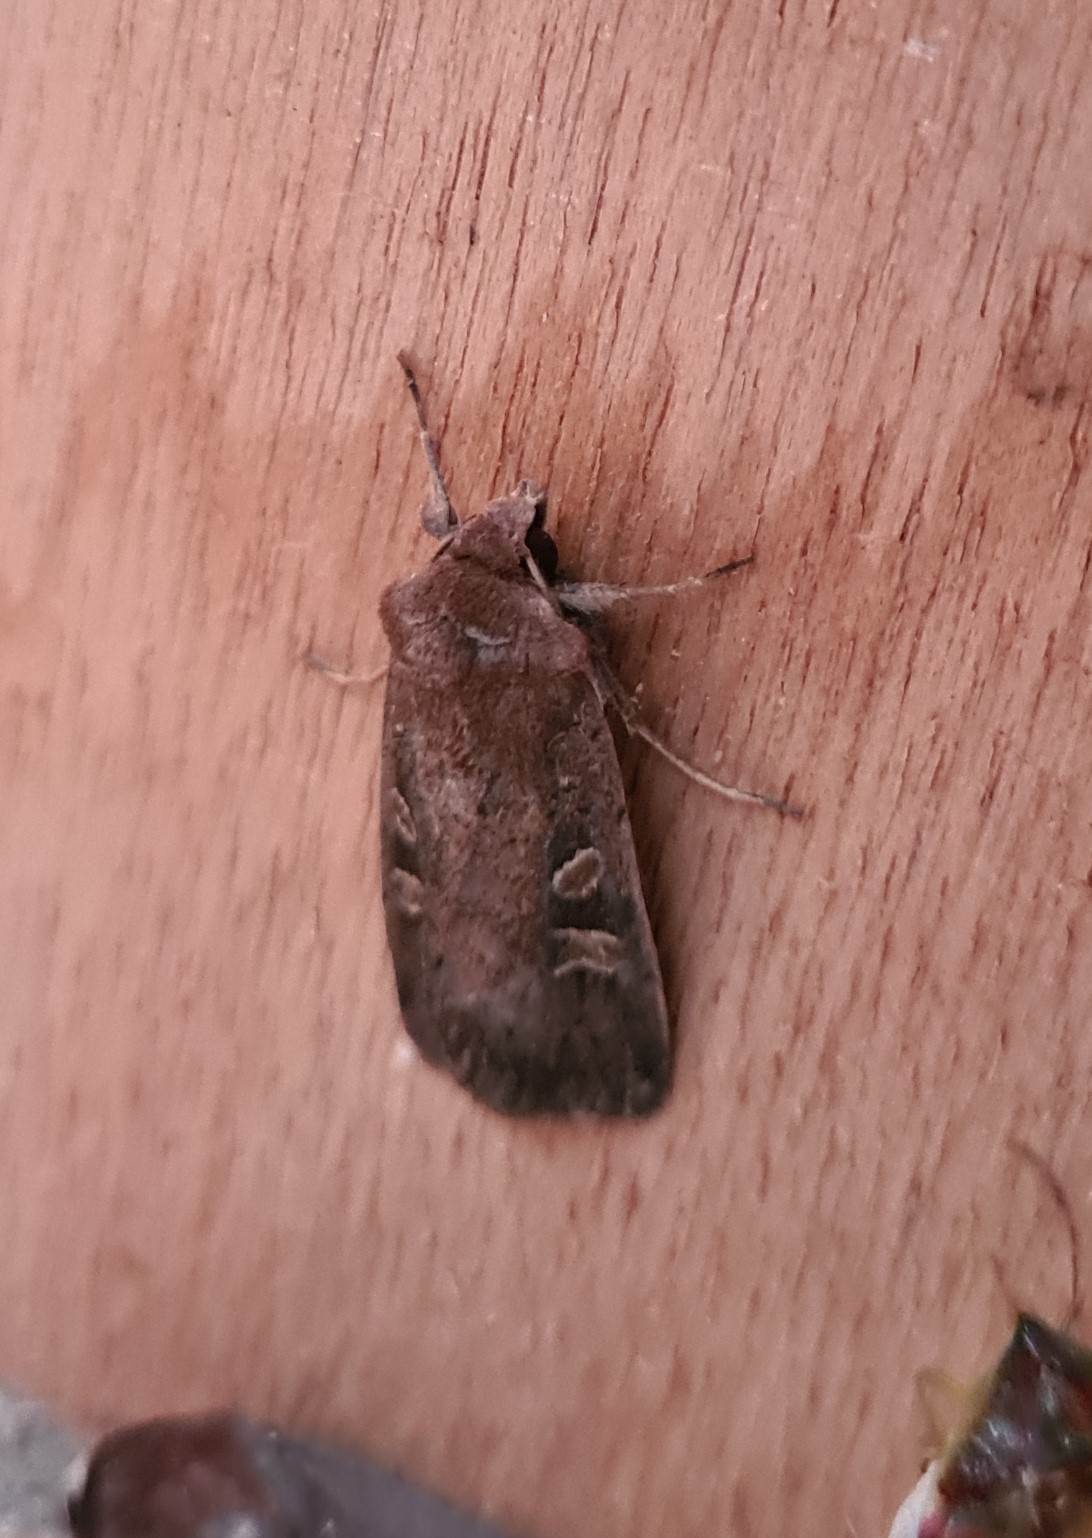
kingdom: Animalia
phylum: Arthropoda
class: Insecta
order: Lepidoptera
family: Noctuidae
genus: Xestia
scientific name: Xestia xanthographa
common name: Square-spot rustic
